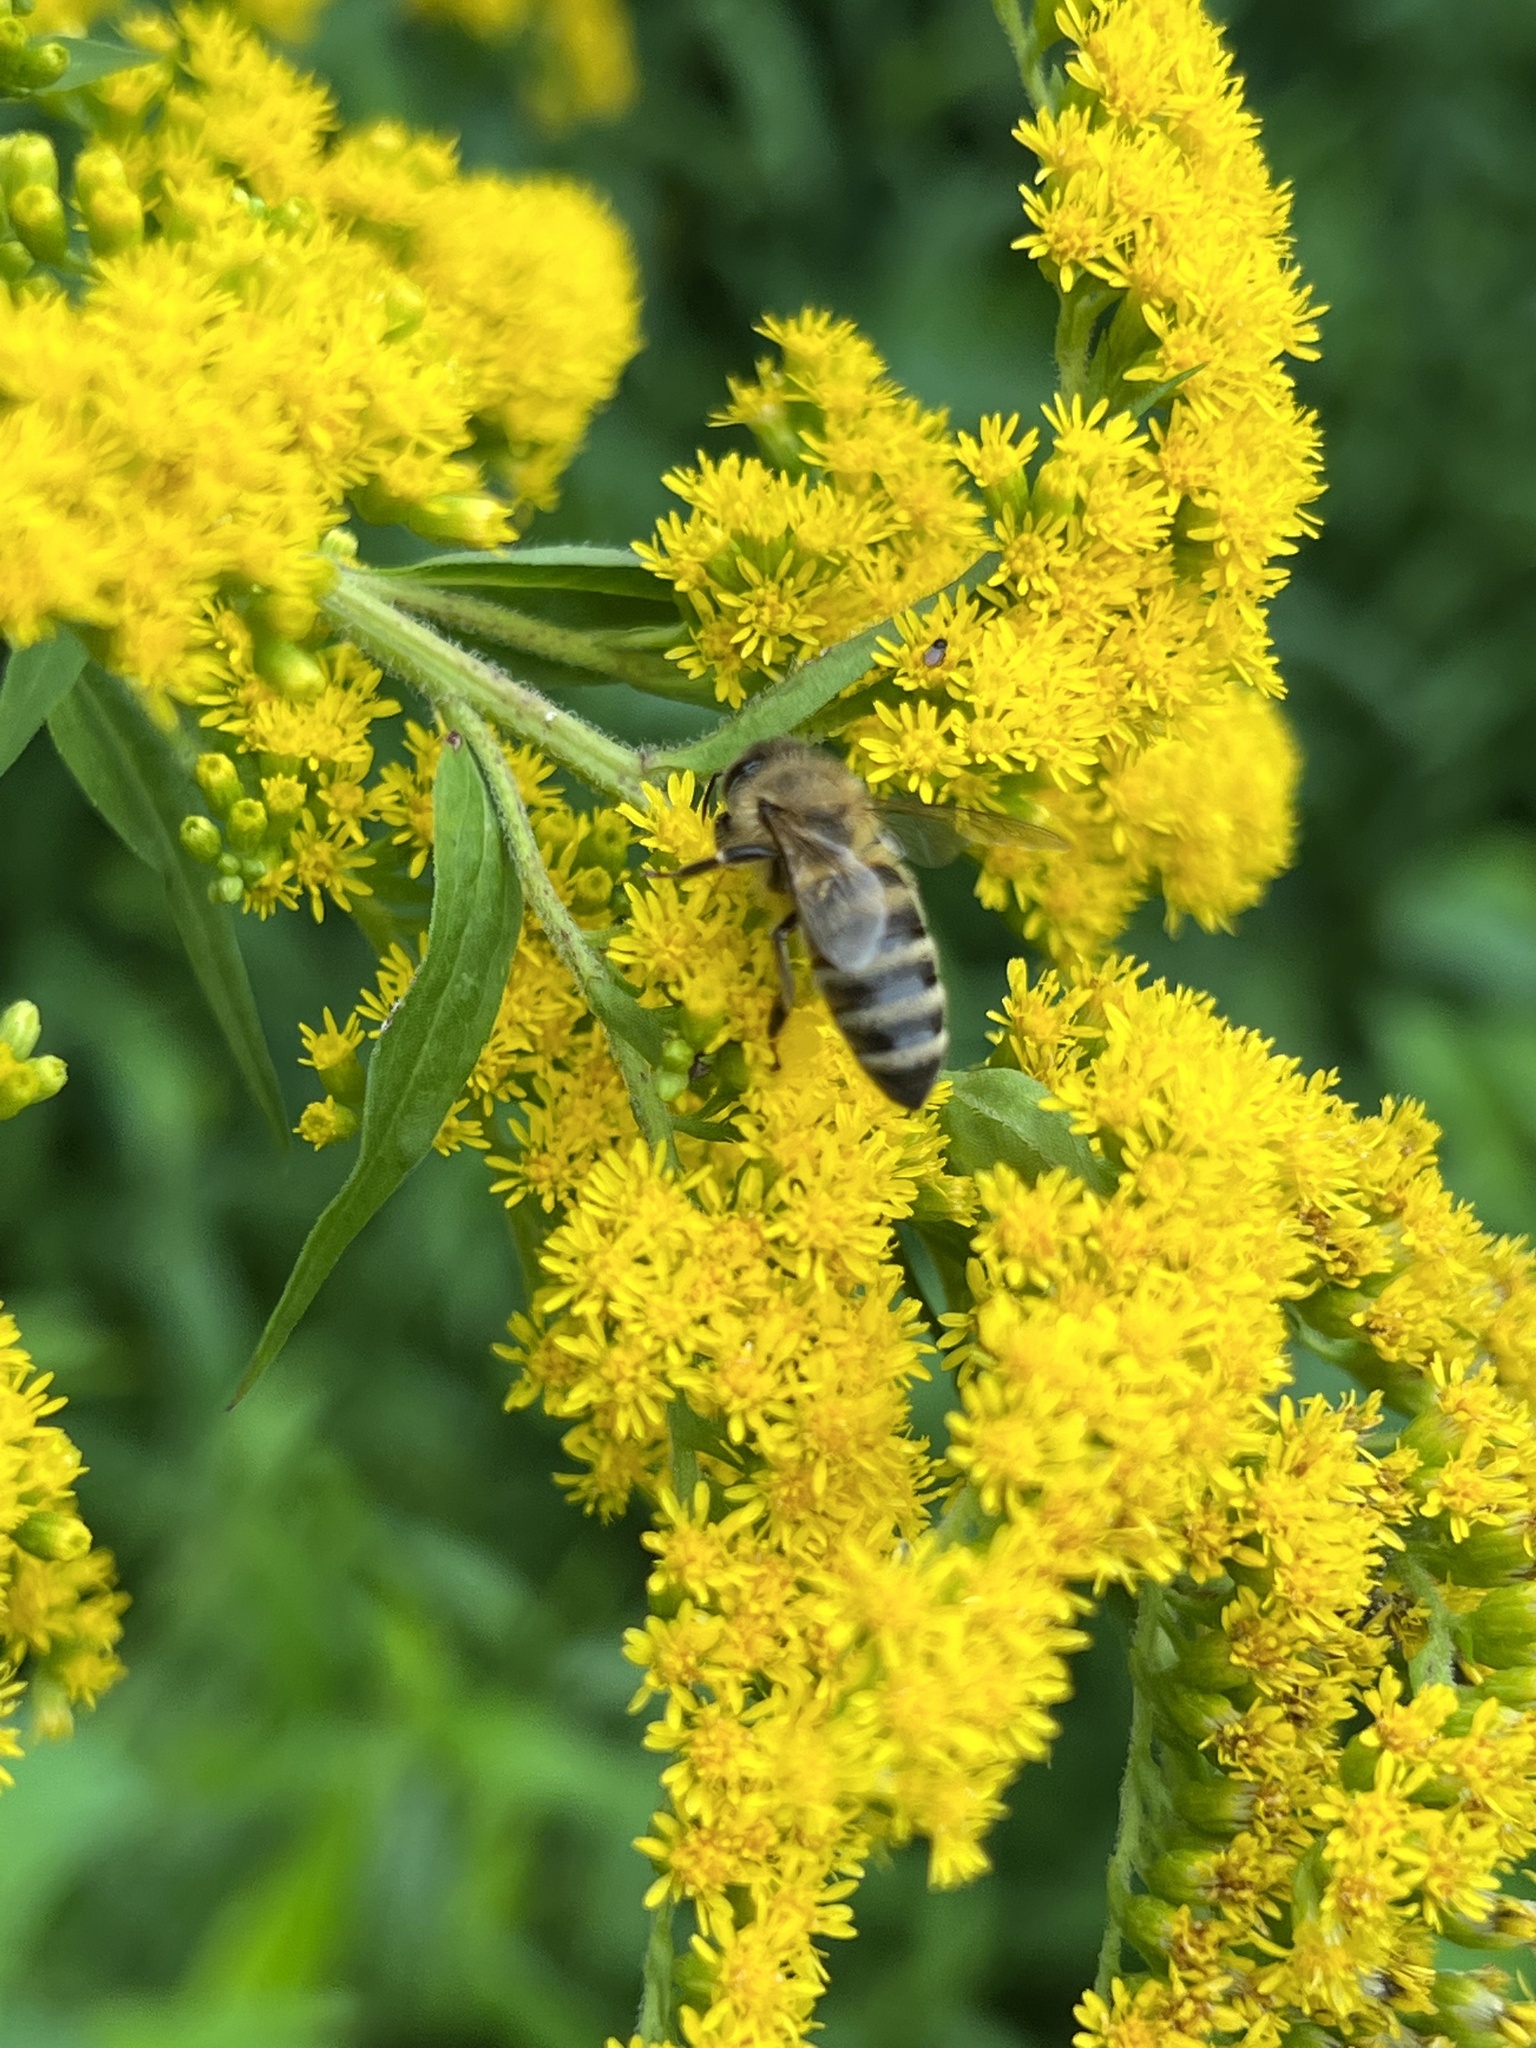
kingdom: Animalia
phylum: Arthropoda
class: Insecta
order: Hymenoptera
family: Apidae
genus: Apis
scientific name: Apis mellifera
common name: Honey bee
